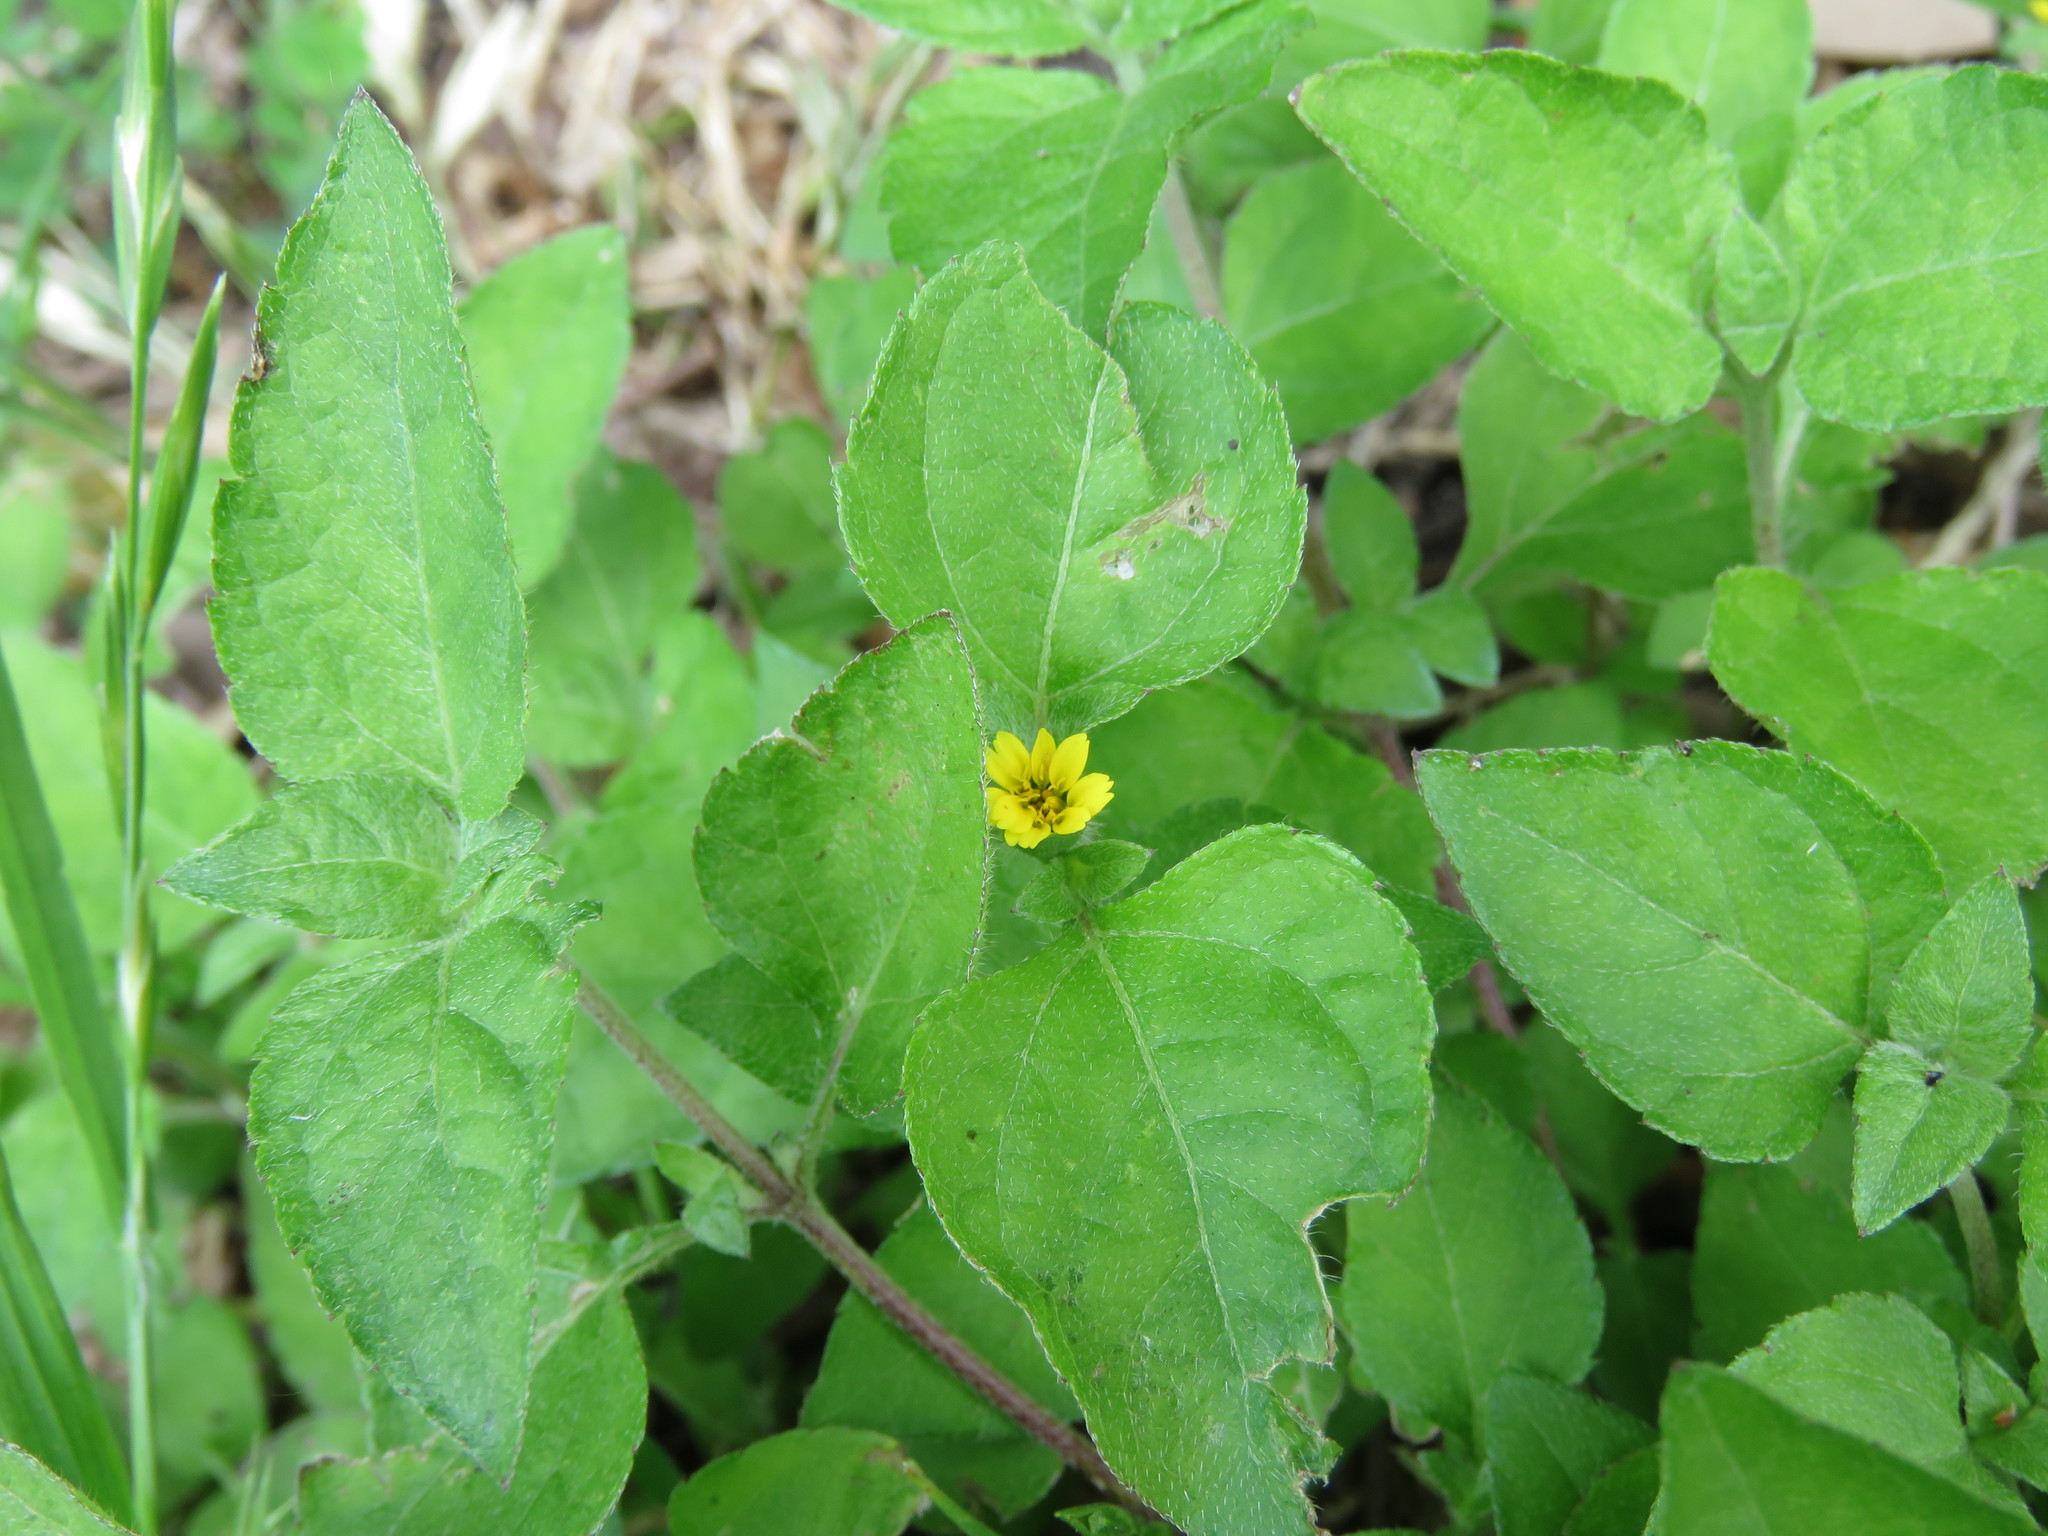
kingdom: Plantae
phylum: Tracheophyta
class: Magnoliopsida
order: Asterales
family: Asteraceae
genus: Calyptocarpus
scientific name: Calyptocarpus vialis
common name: Straggler daisy
